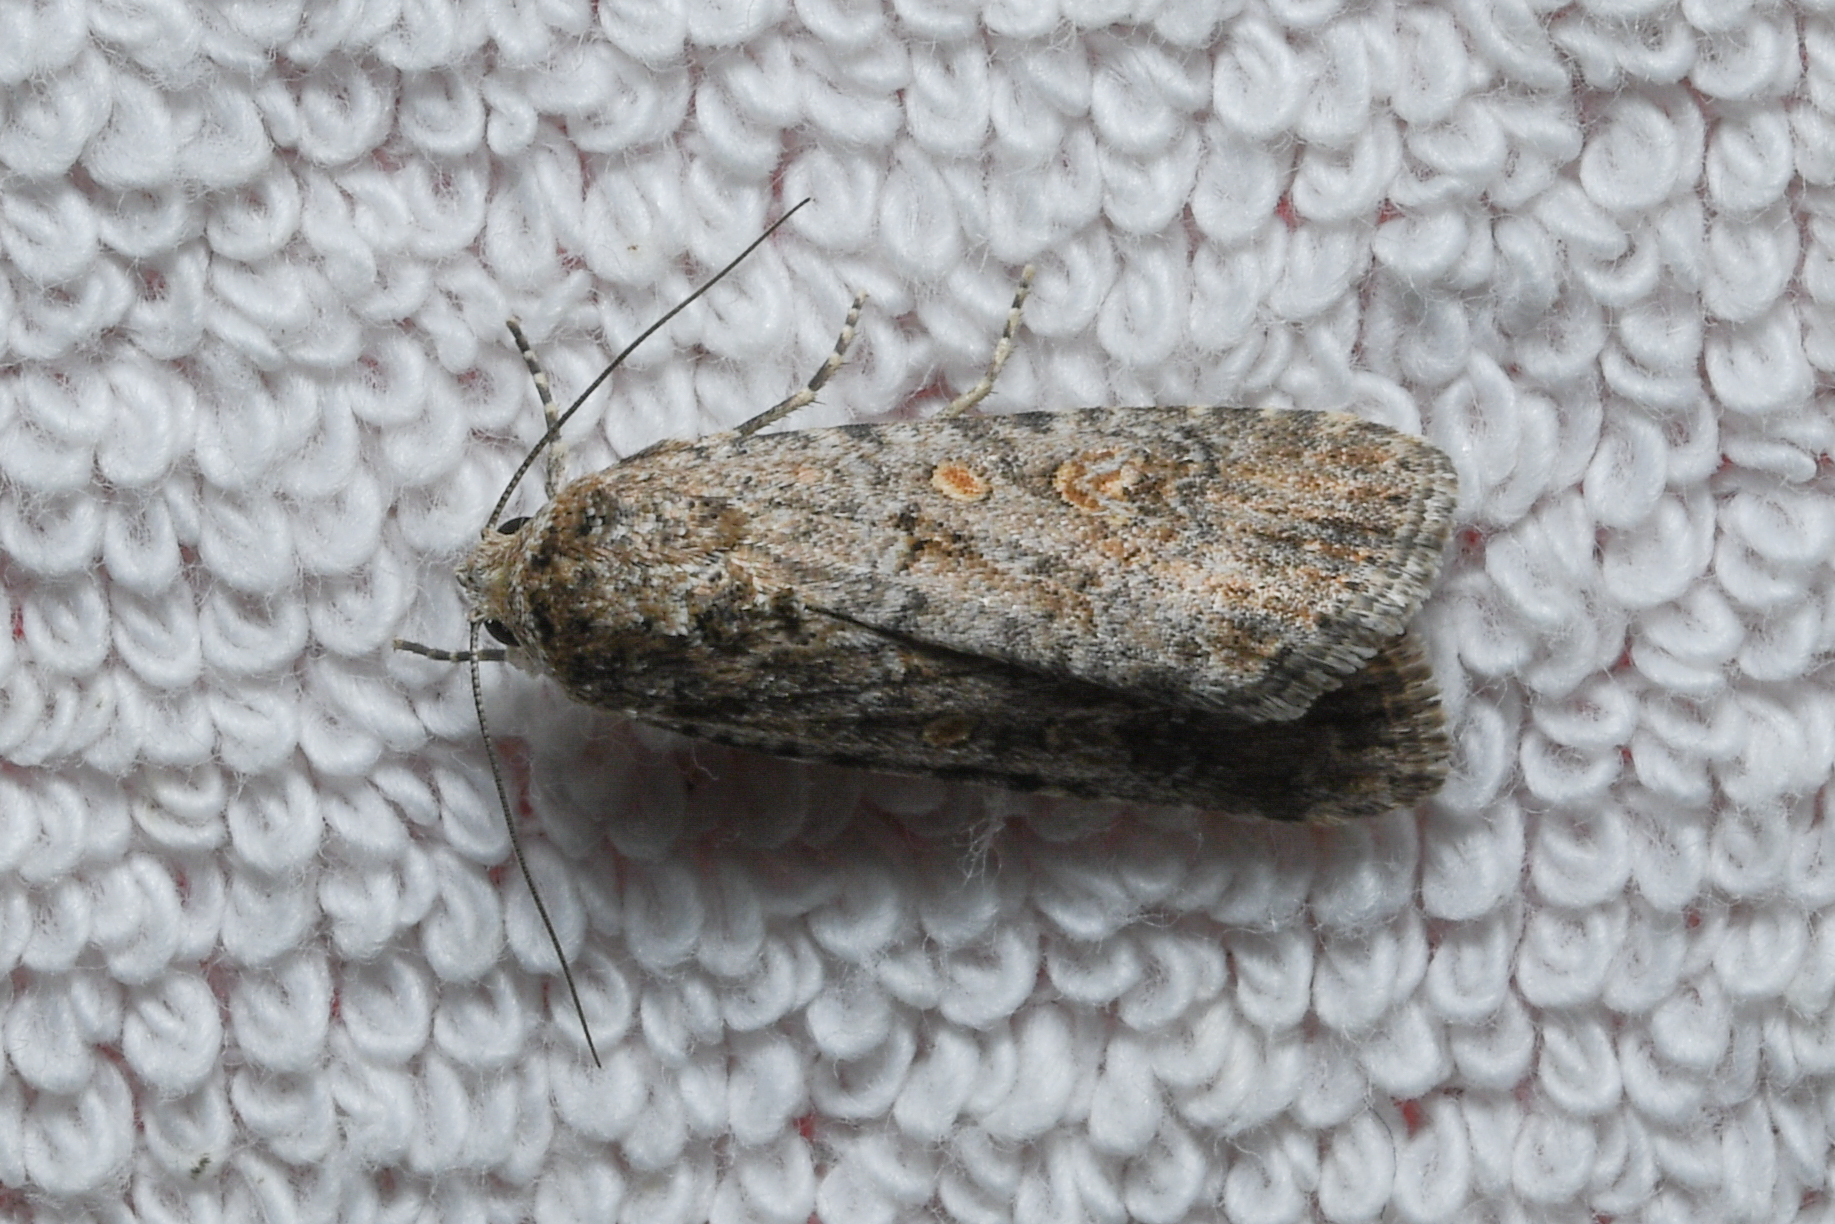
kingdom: Animalia
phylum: Arthropoda
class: Insecta
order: Lepidoptera
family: Noctuidae
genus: Spodoptera
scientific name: Spodoptera exigua
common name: Beet armyworm
